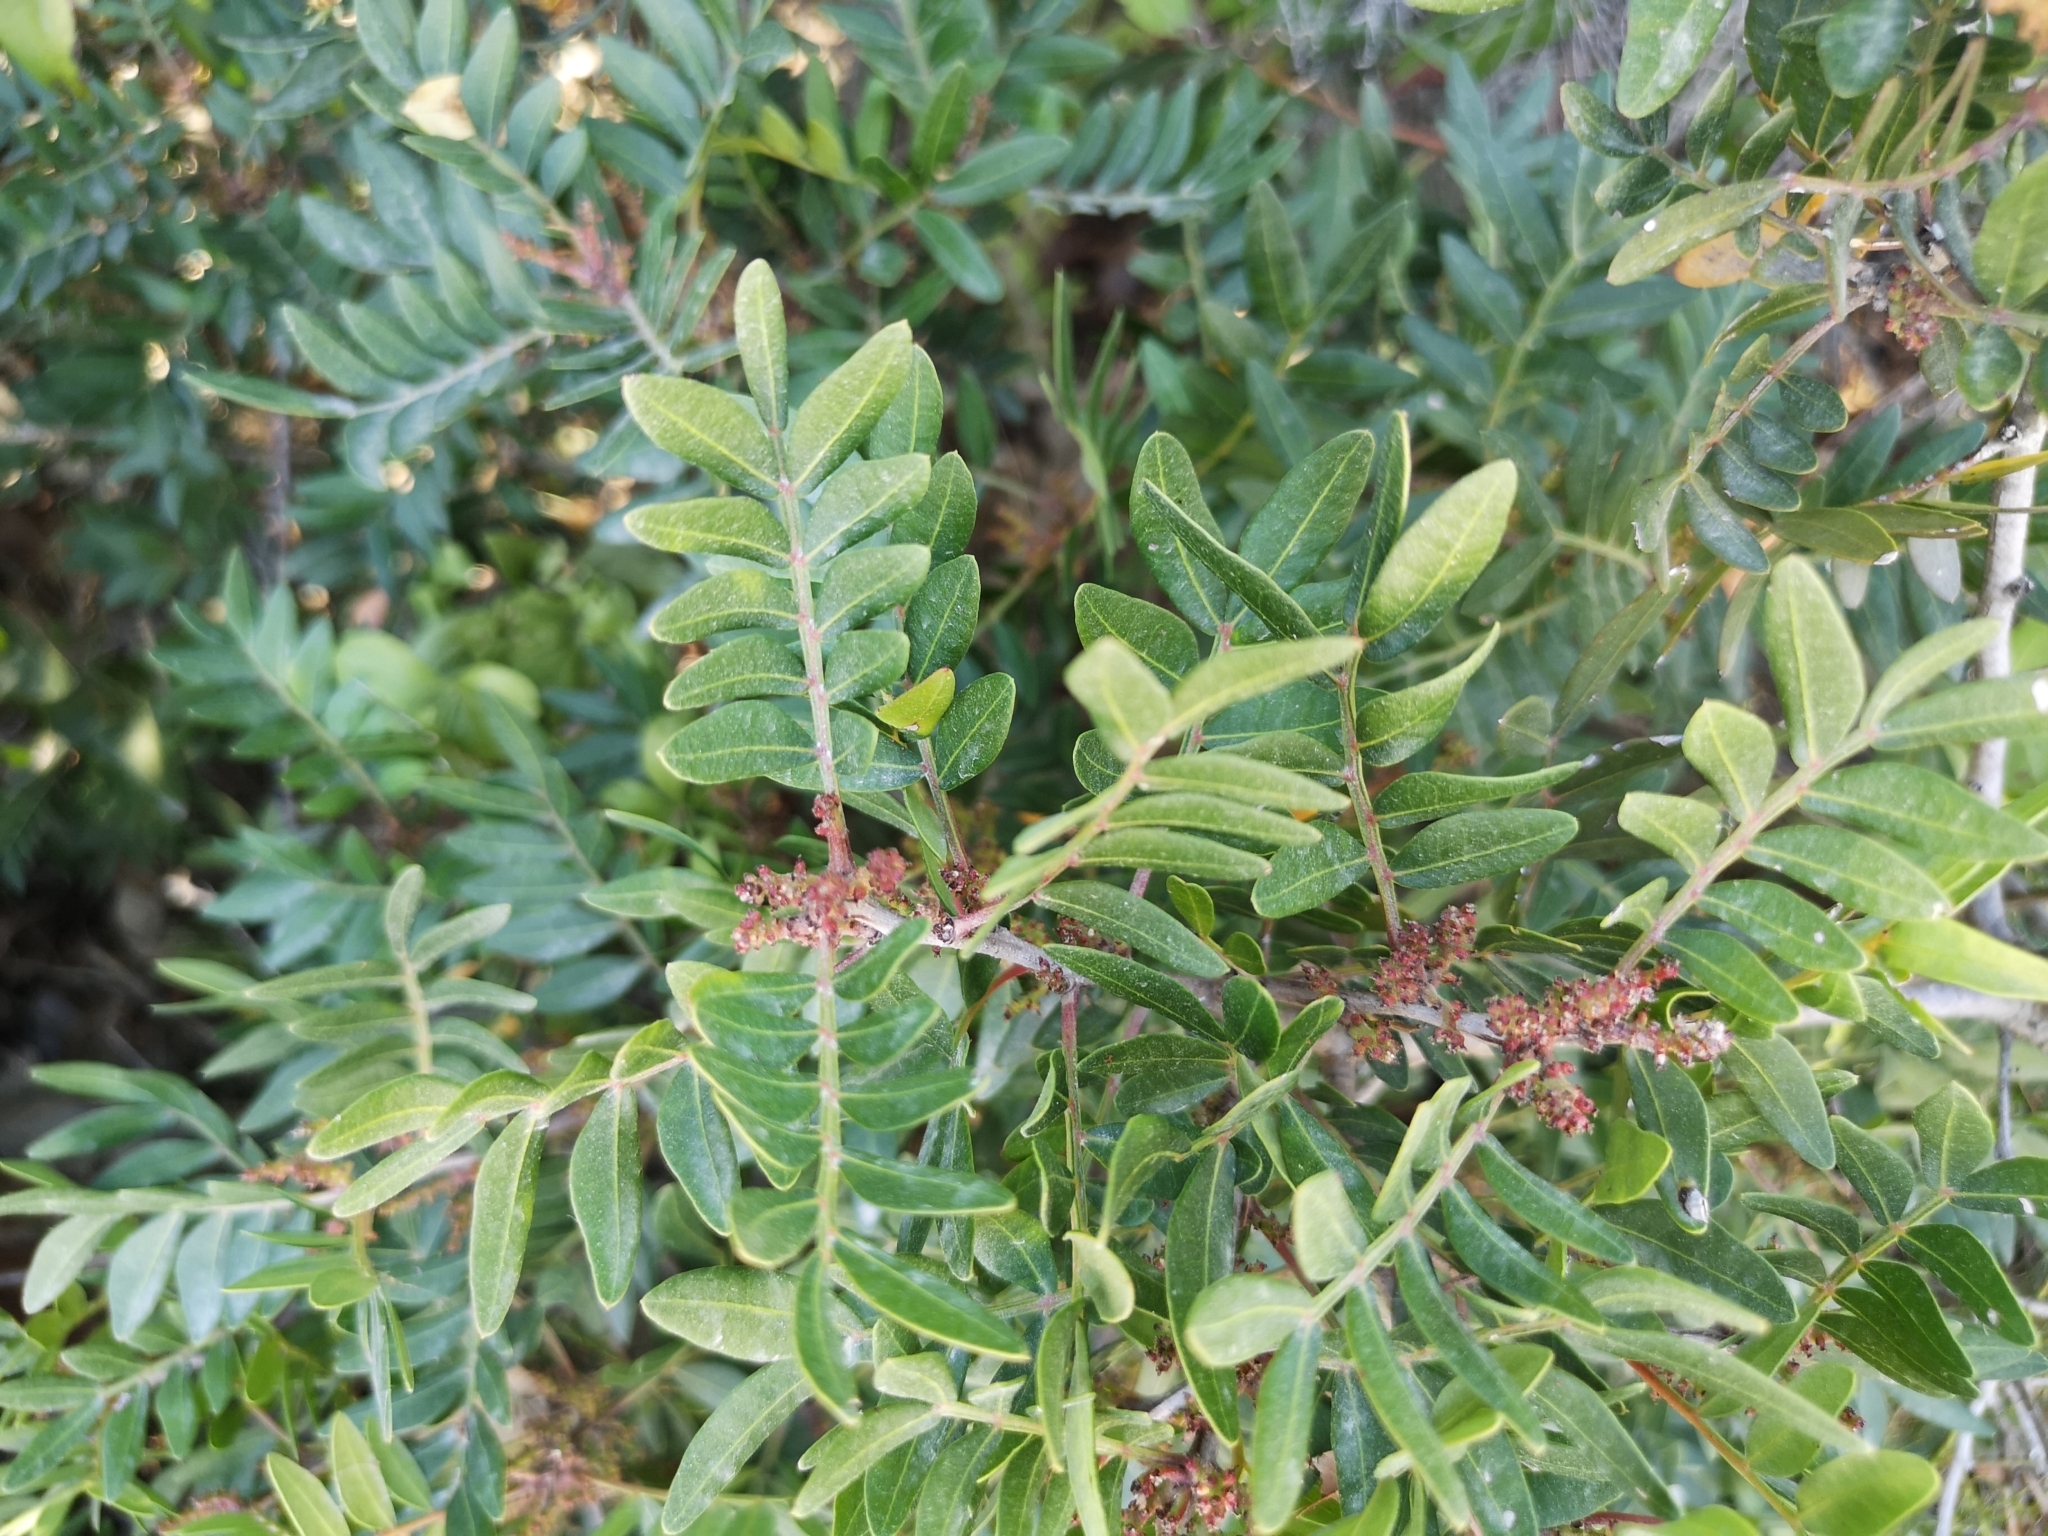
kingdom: Plantae
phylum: Tracheophyta
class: Magnoliopsida
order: Sapindales
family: Anacardiaceae
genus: Pistacia
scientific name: Pistacia lentiscus
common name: Lentisk
